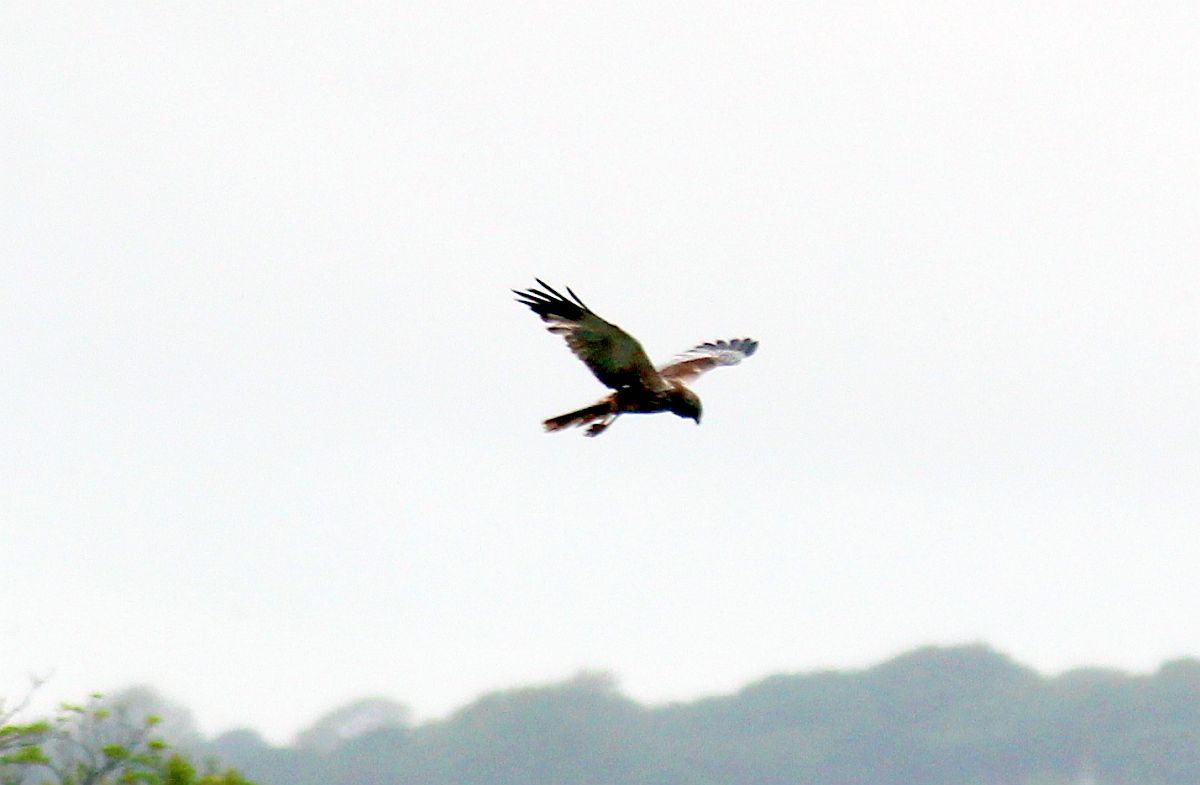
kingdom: Animalia
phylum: Chordata
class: Aves
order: Accipitriformes
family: Accipitridae
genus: Circus
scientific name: Circus aeruginosus
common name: Western marsh harrier
